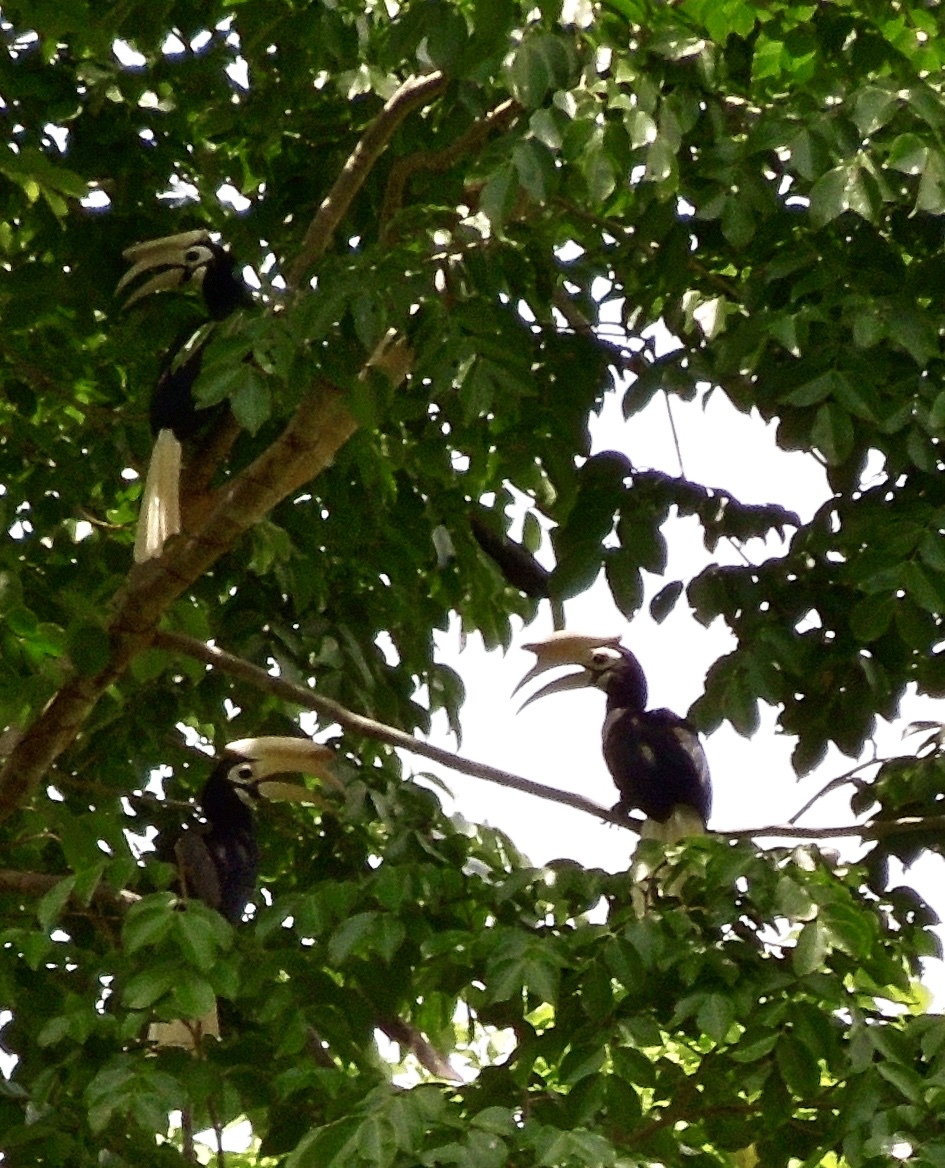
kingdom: Animalia
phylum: Chordata
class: Aves
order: Bucerotiformes
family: Bucerotidae
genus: Anthracoceros
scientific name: Anthracoceros marchei
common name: Palawan hornbill
